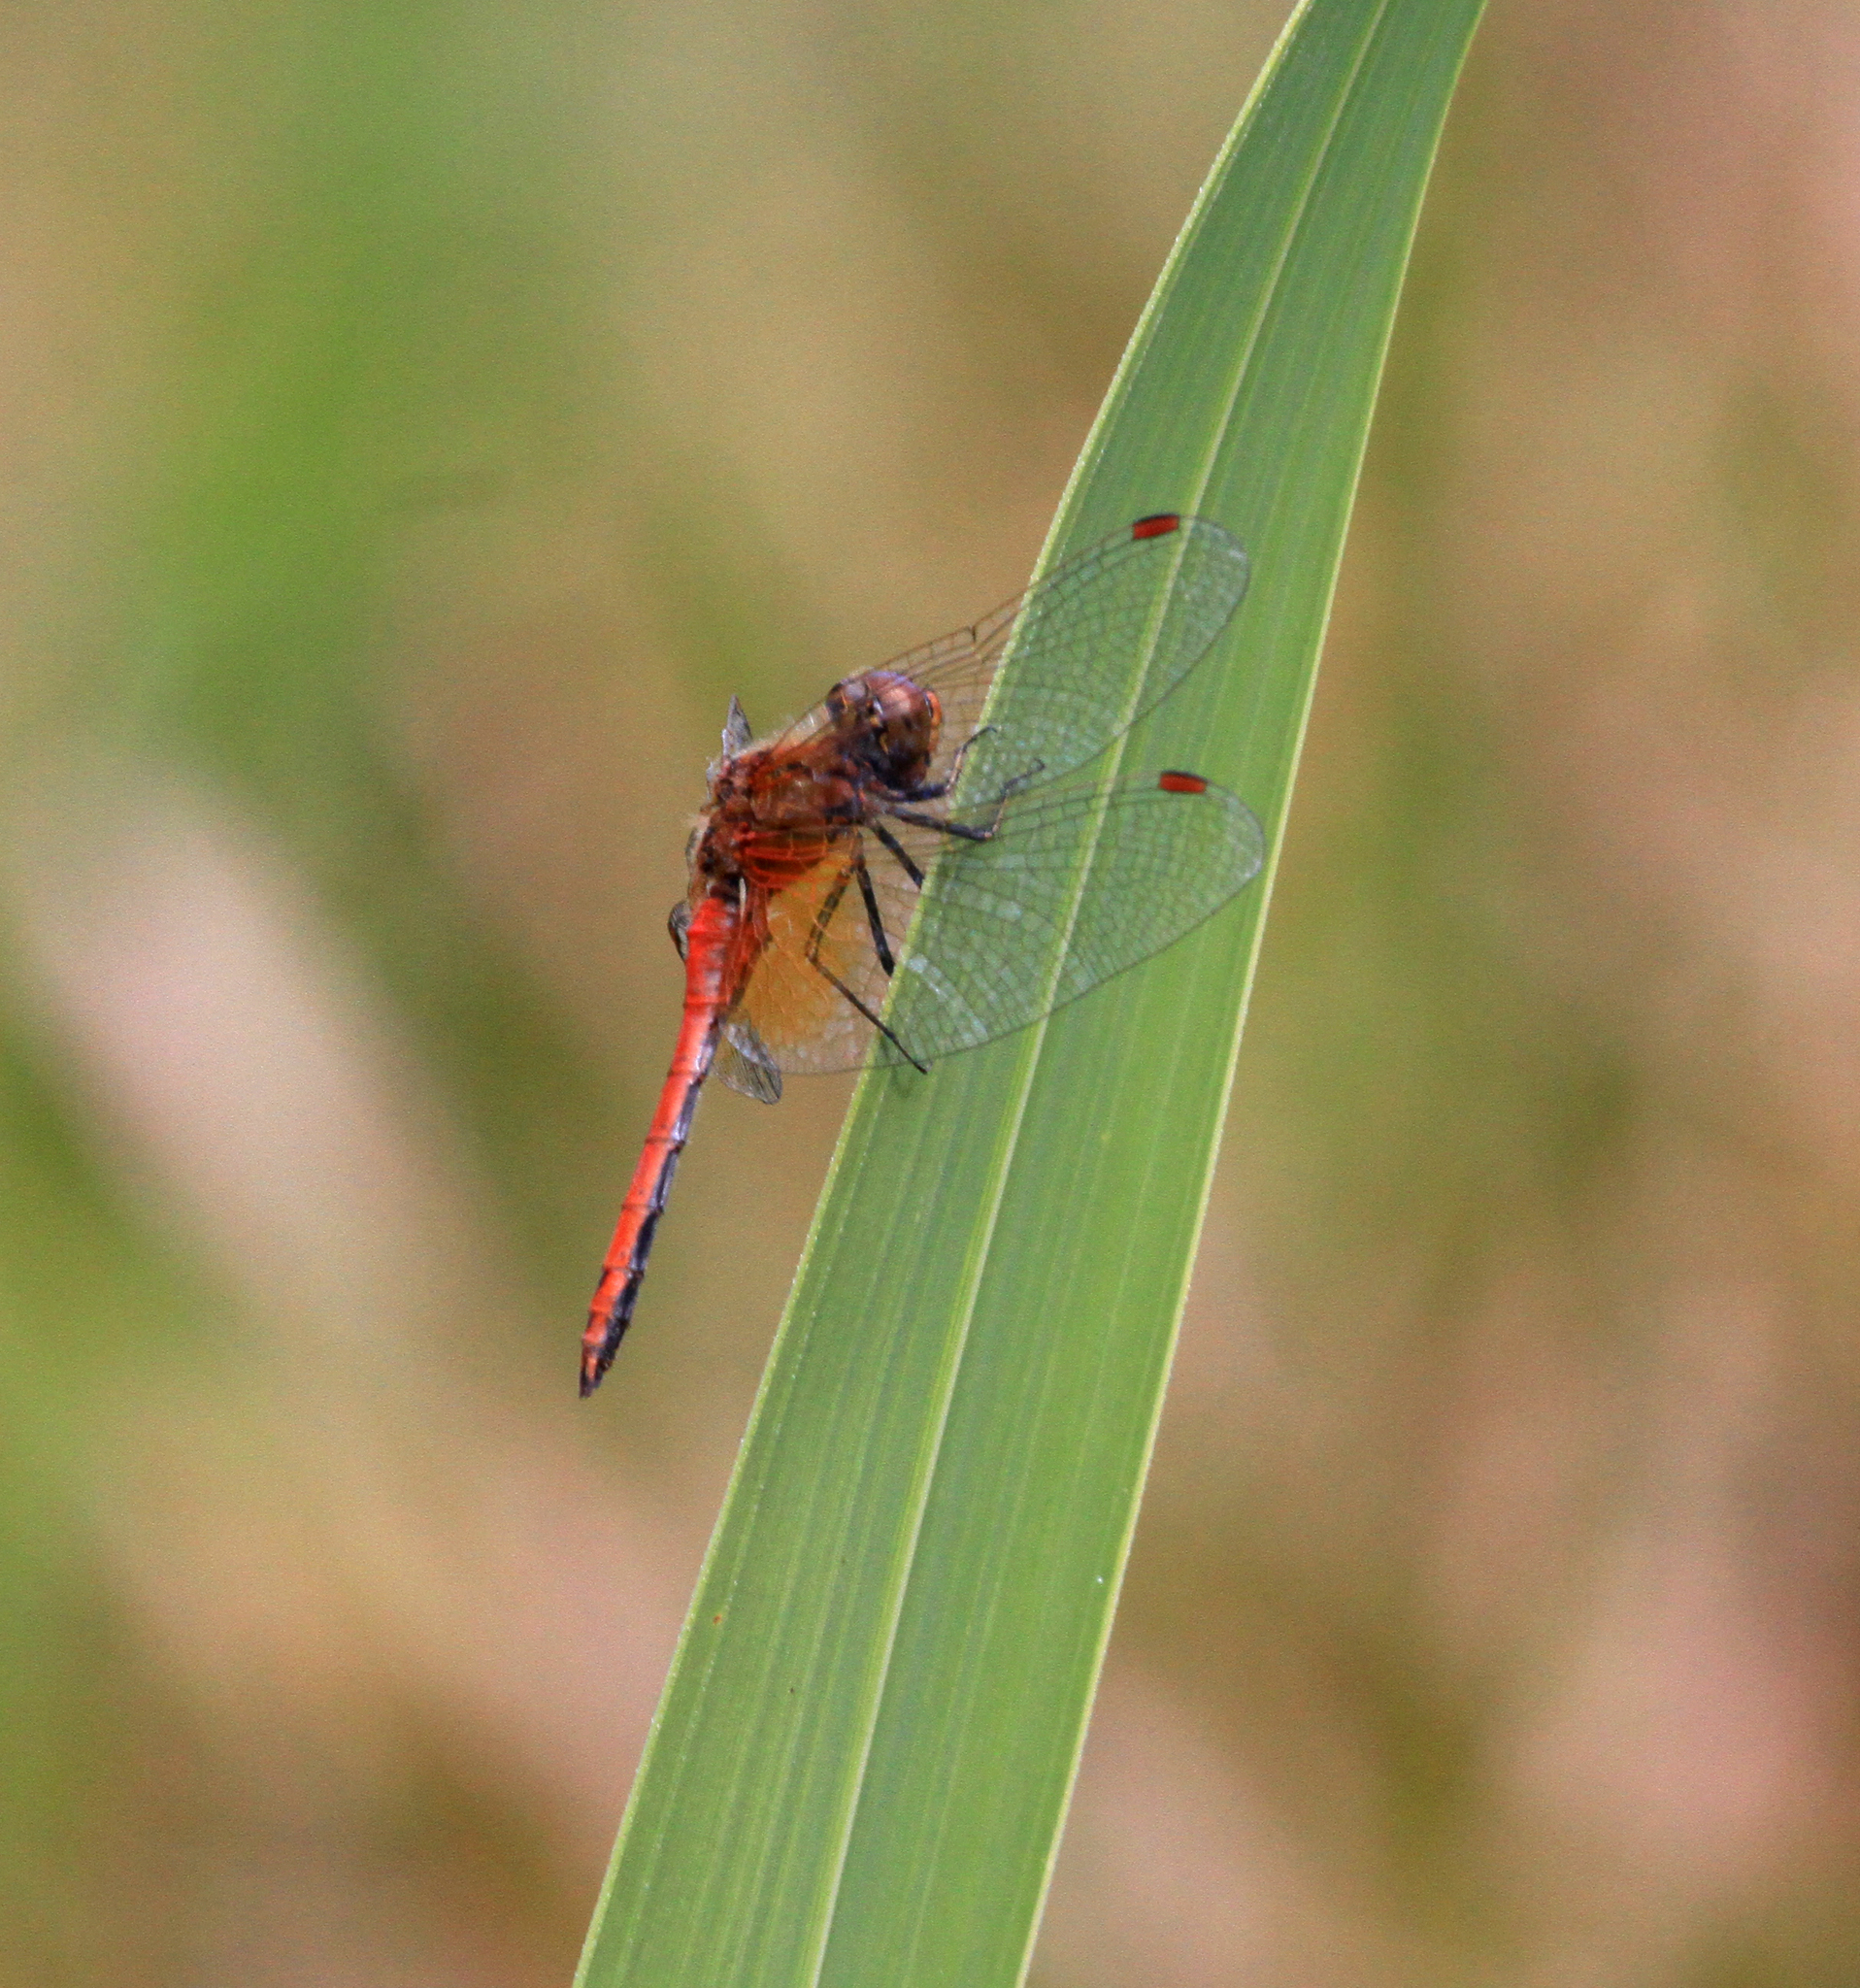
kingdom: Animalia
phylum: Arthropoda
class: Insecta
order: Odonata
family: Libellulidae
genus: Sympetrum
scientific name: Sympetrum flaveolum
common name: Yellow-winged darter
